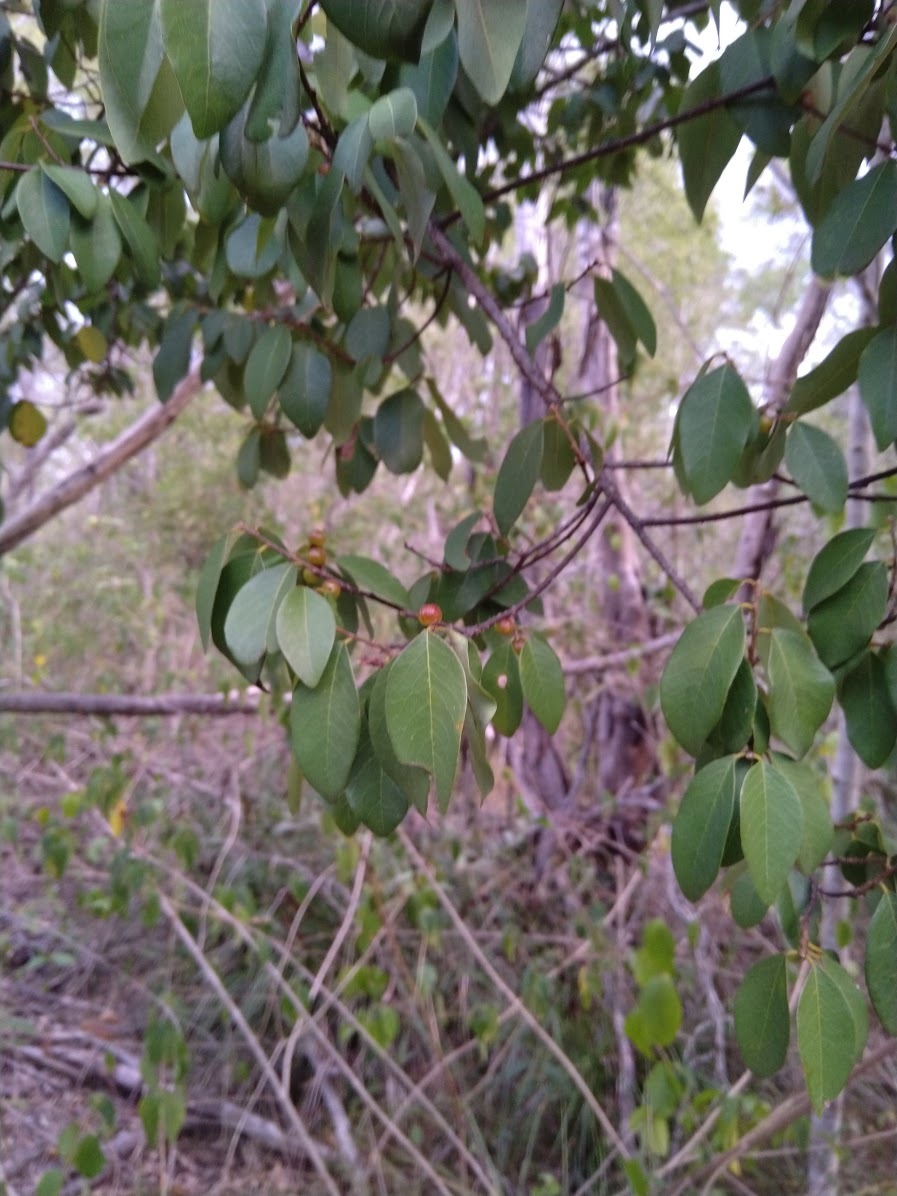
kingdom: Plantae
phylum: Tracheophyta
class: Magnoliopsida
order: Malpighiales
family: Phyllanthaceae
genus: Bridelia
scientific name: Bridelia leichhardtii
